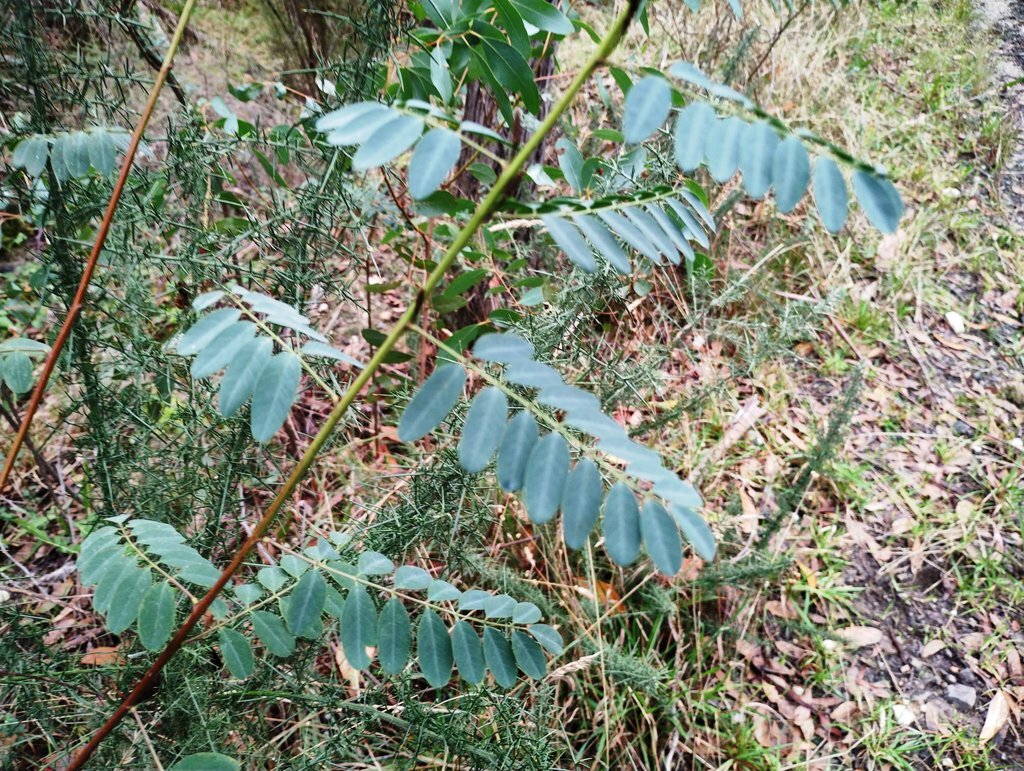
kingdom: Plantae
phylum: Tracheophyta
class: Magnoliopsida
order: Fabales
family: Fabaceae
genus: Indigofera
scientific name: Indigofera australis
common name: Australian indigo
